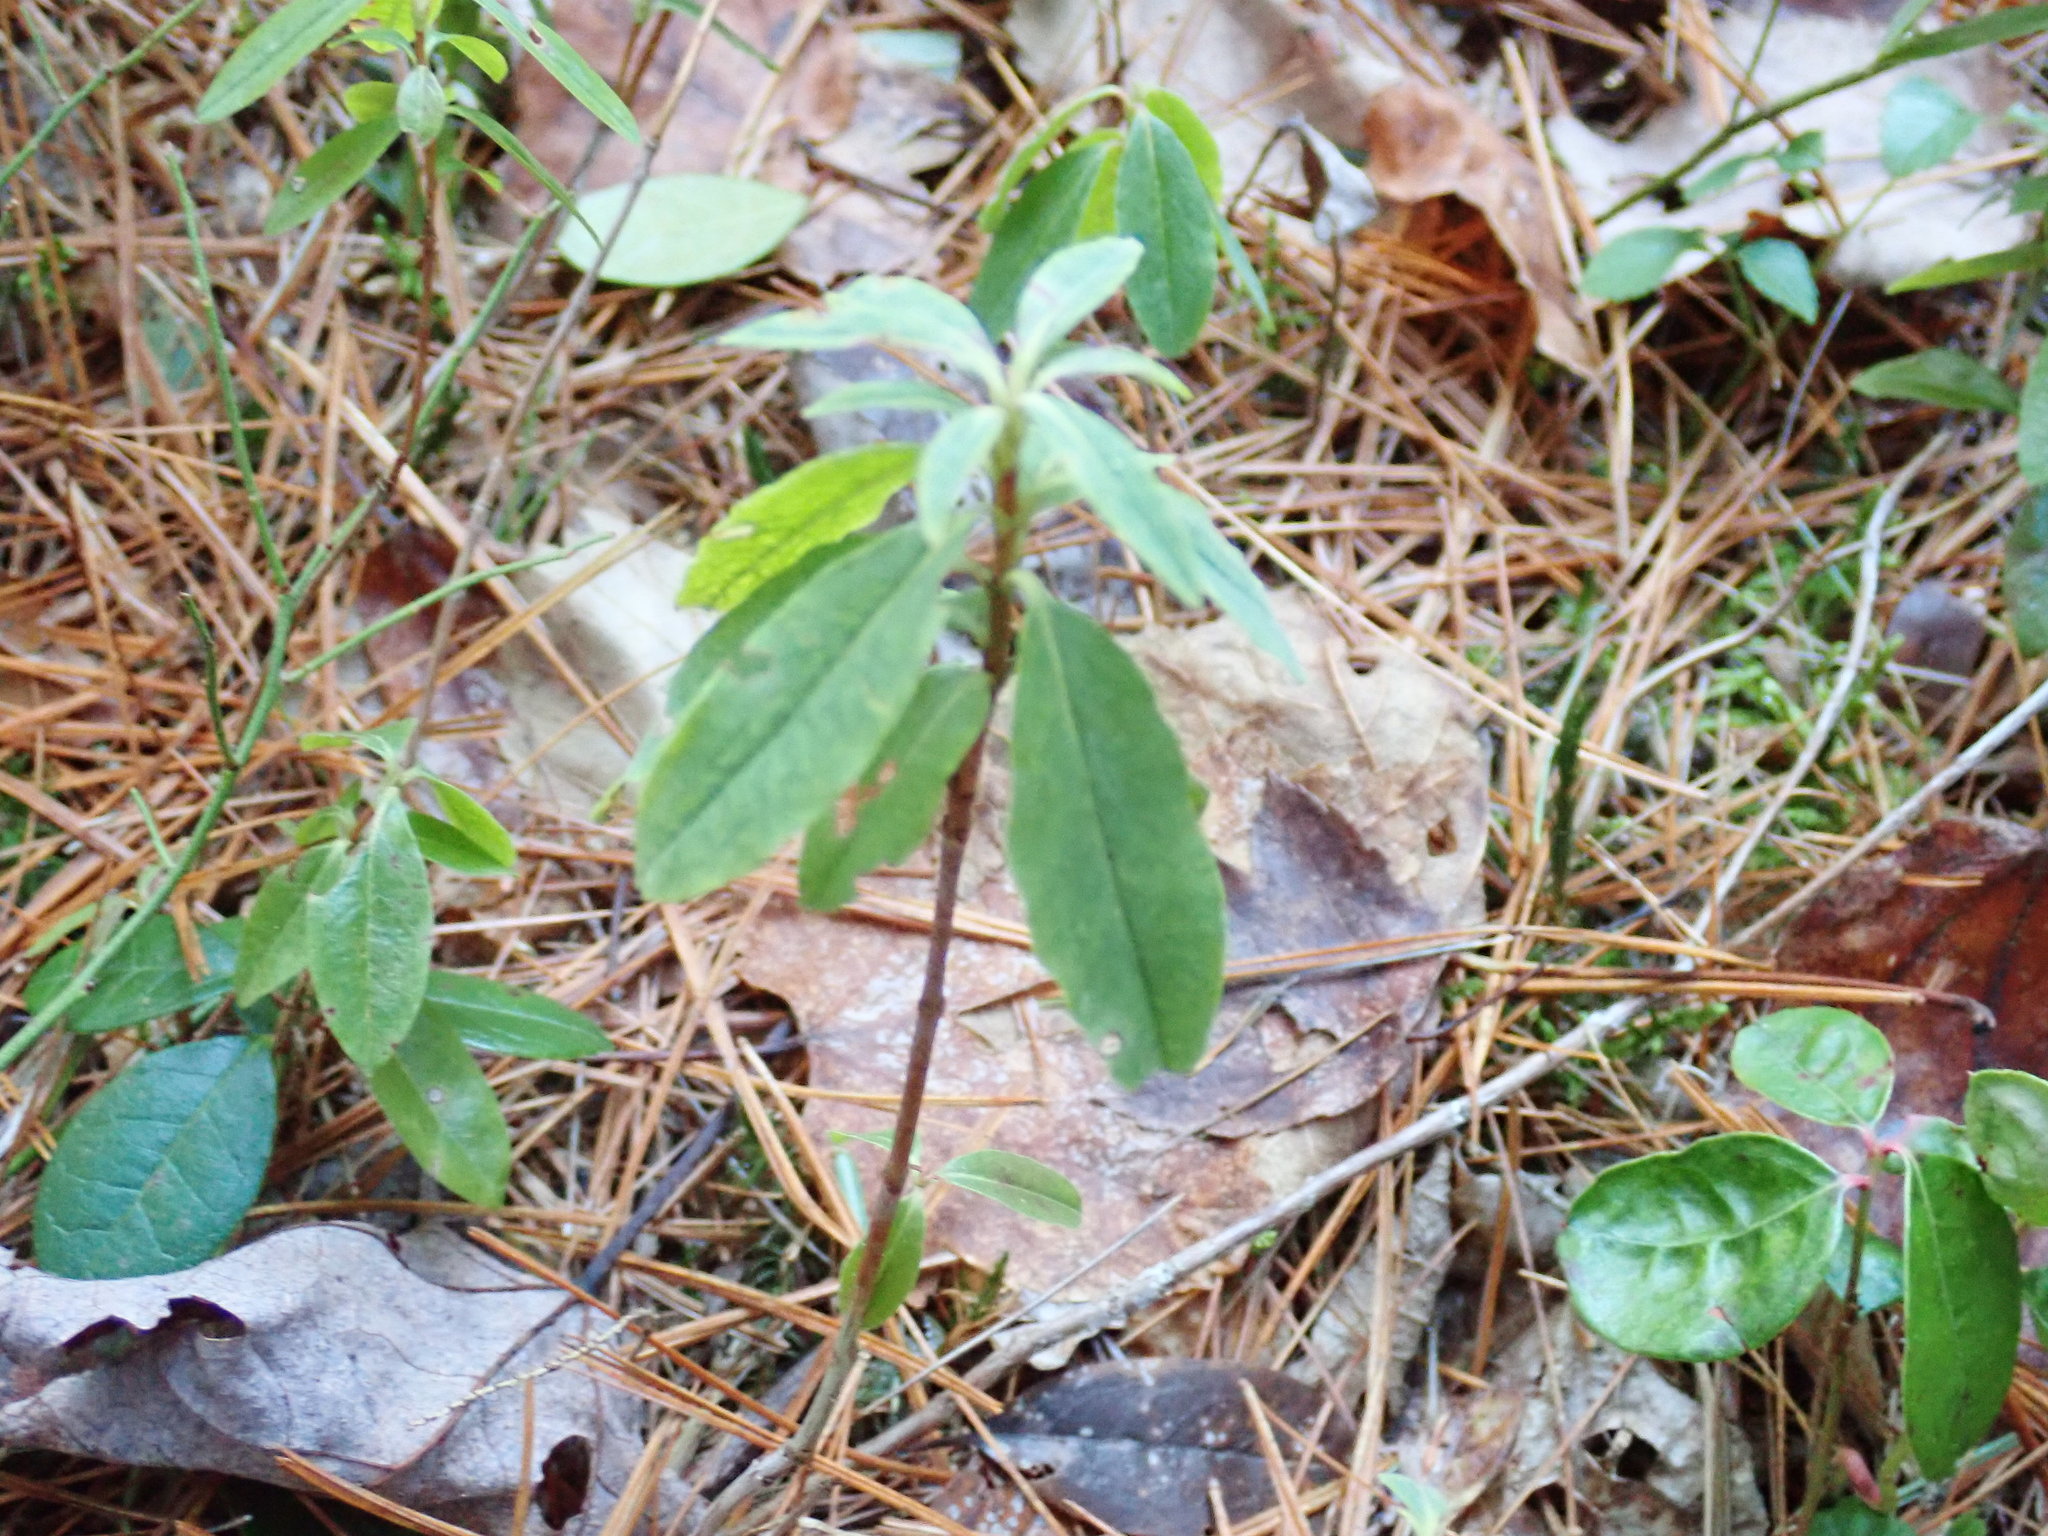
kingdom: Plantae
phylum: Tracheophyta
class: Magnoliopsida
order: Ericales
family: Ericaceae
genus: Kalmia
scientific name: Kalmia angustifolia
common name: Sheep-laurel
